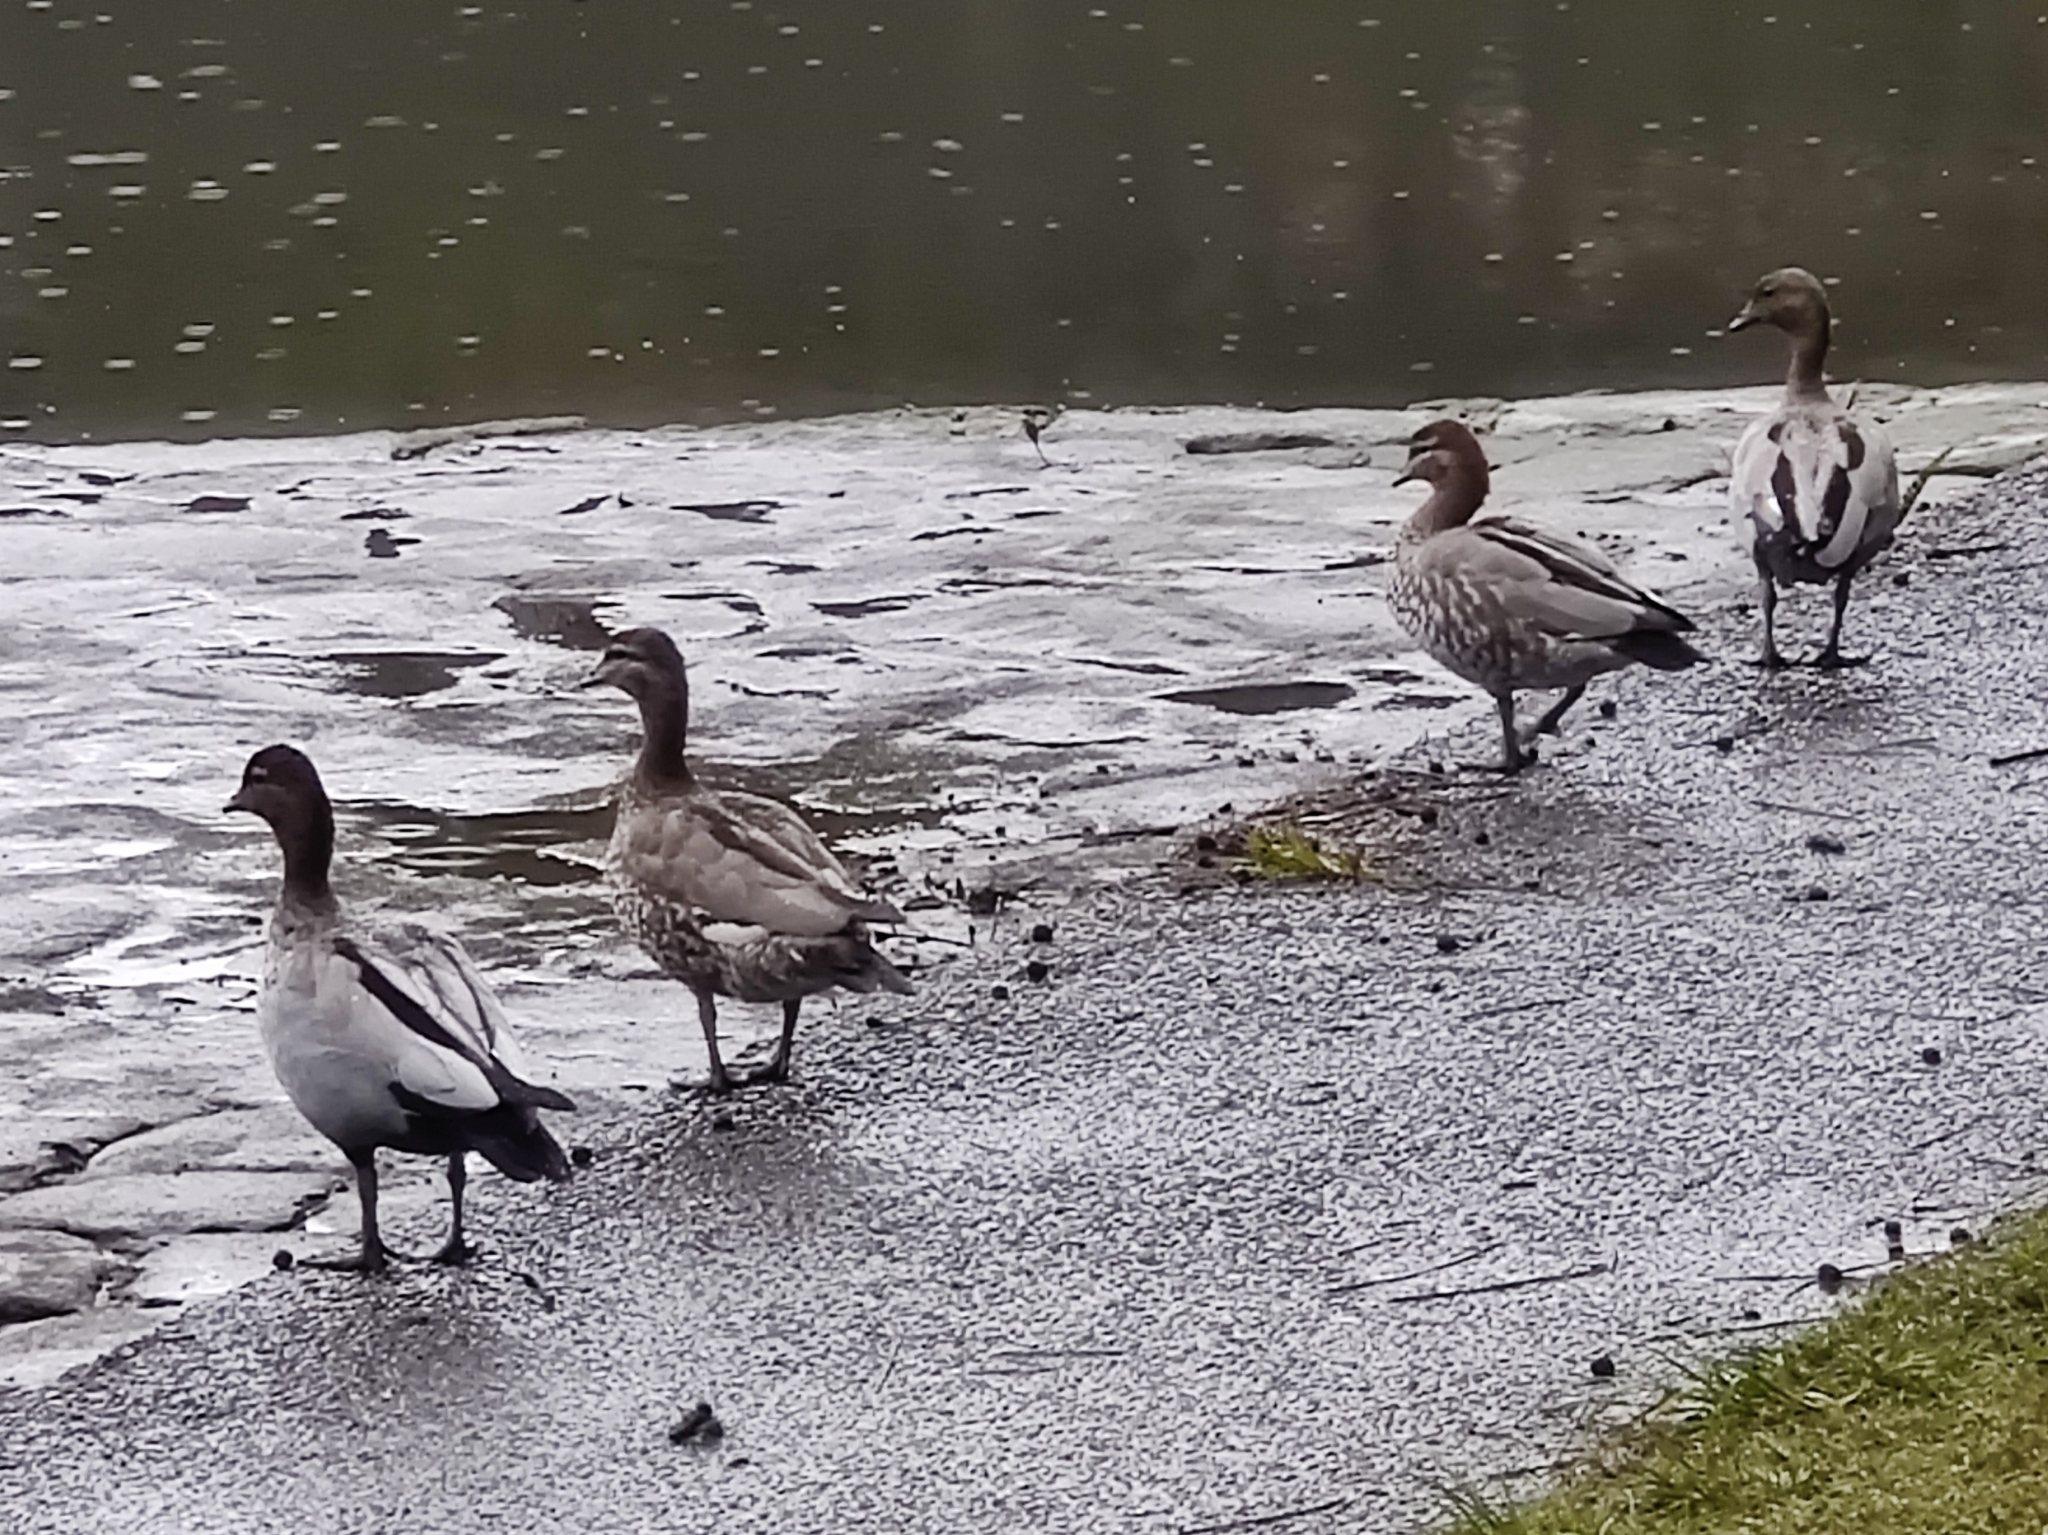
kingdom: Animalia
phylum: Chordata
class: Aves
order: Anseriformes
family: Anatidae
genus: Chenonetta
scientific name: Chenonetta jubata
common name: Maned duck
